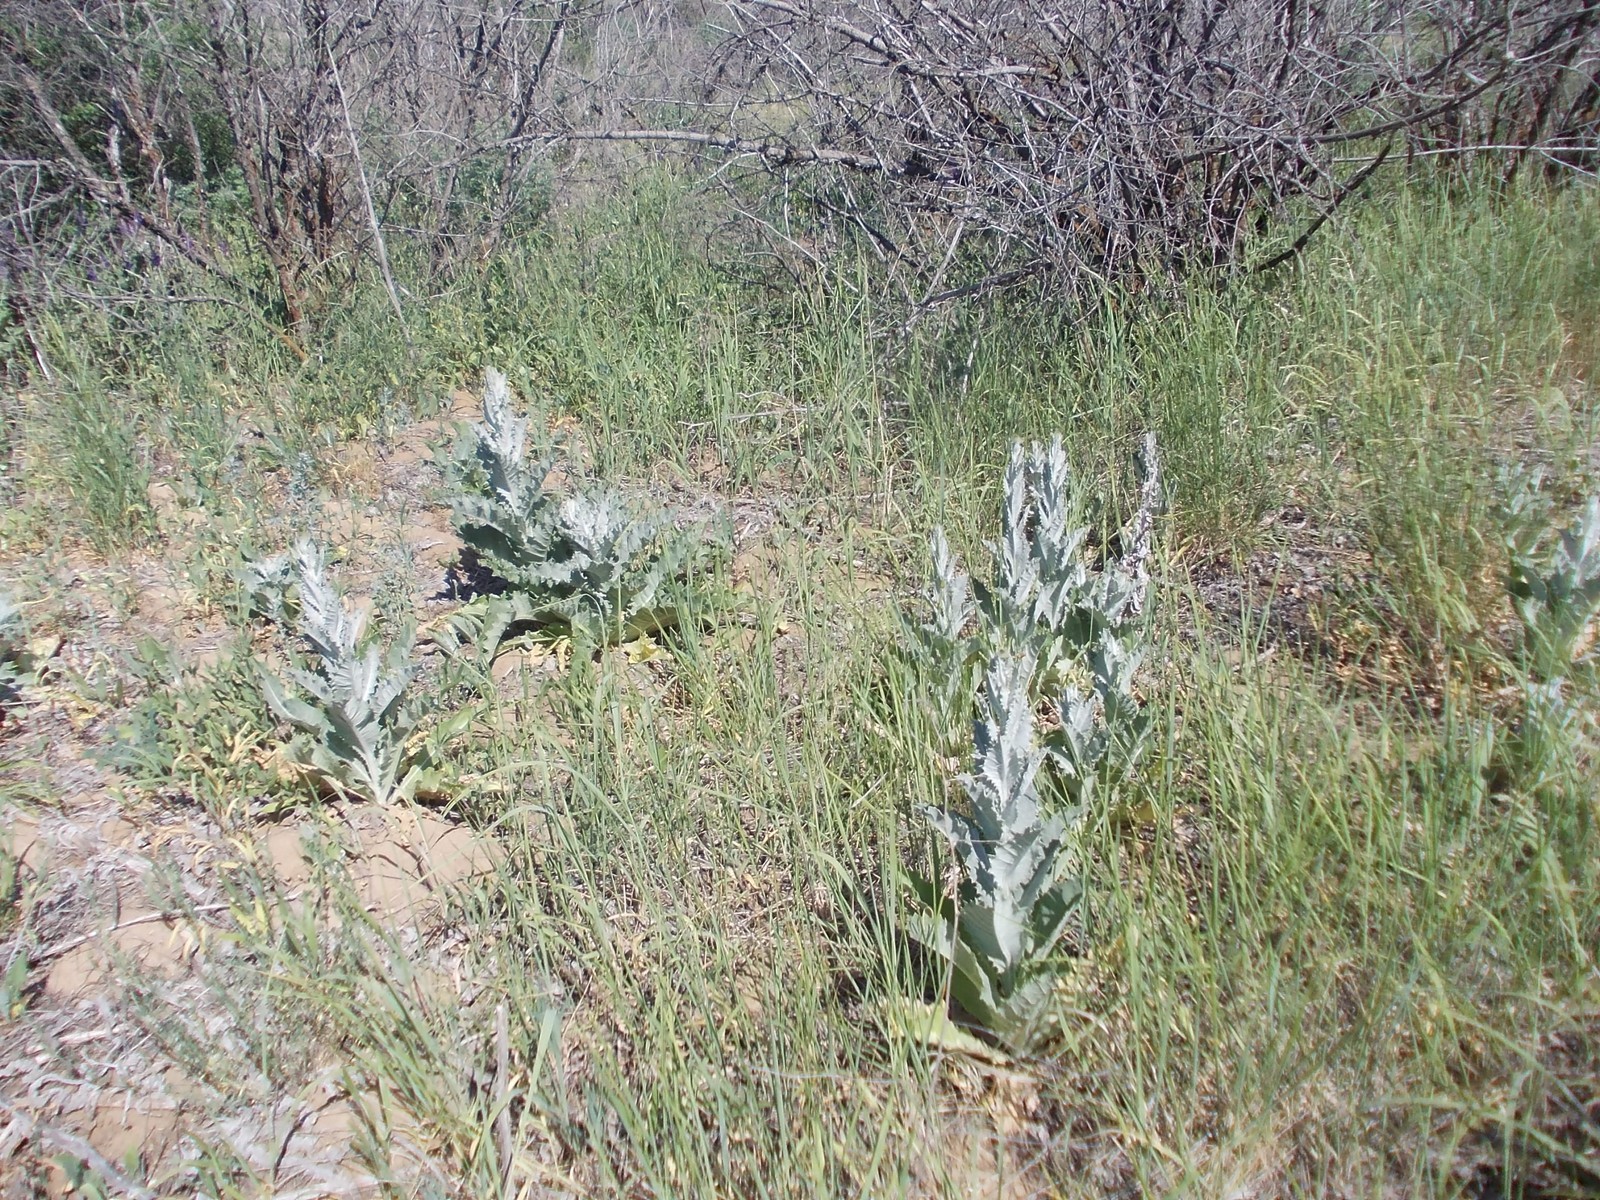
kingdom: Plantae
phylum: Tracheophyta
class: Magnoliopsida
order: Asterales
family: Asteraceae
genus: Onopordum
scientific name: Onopordum acanthium
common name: Scotch thistle
